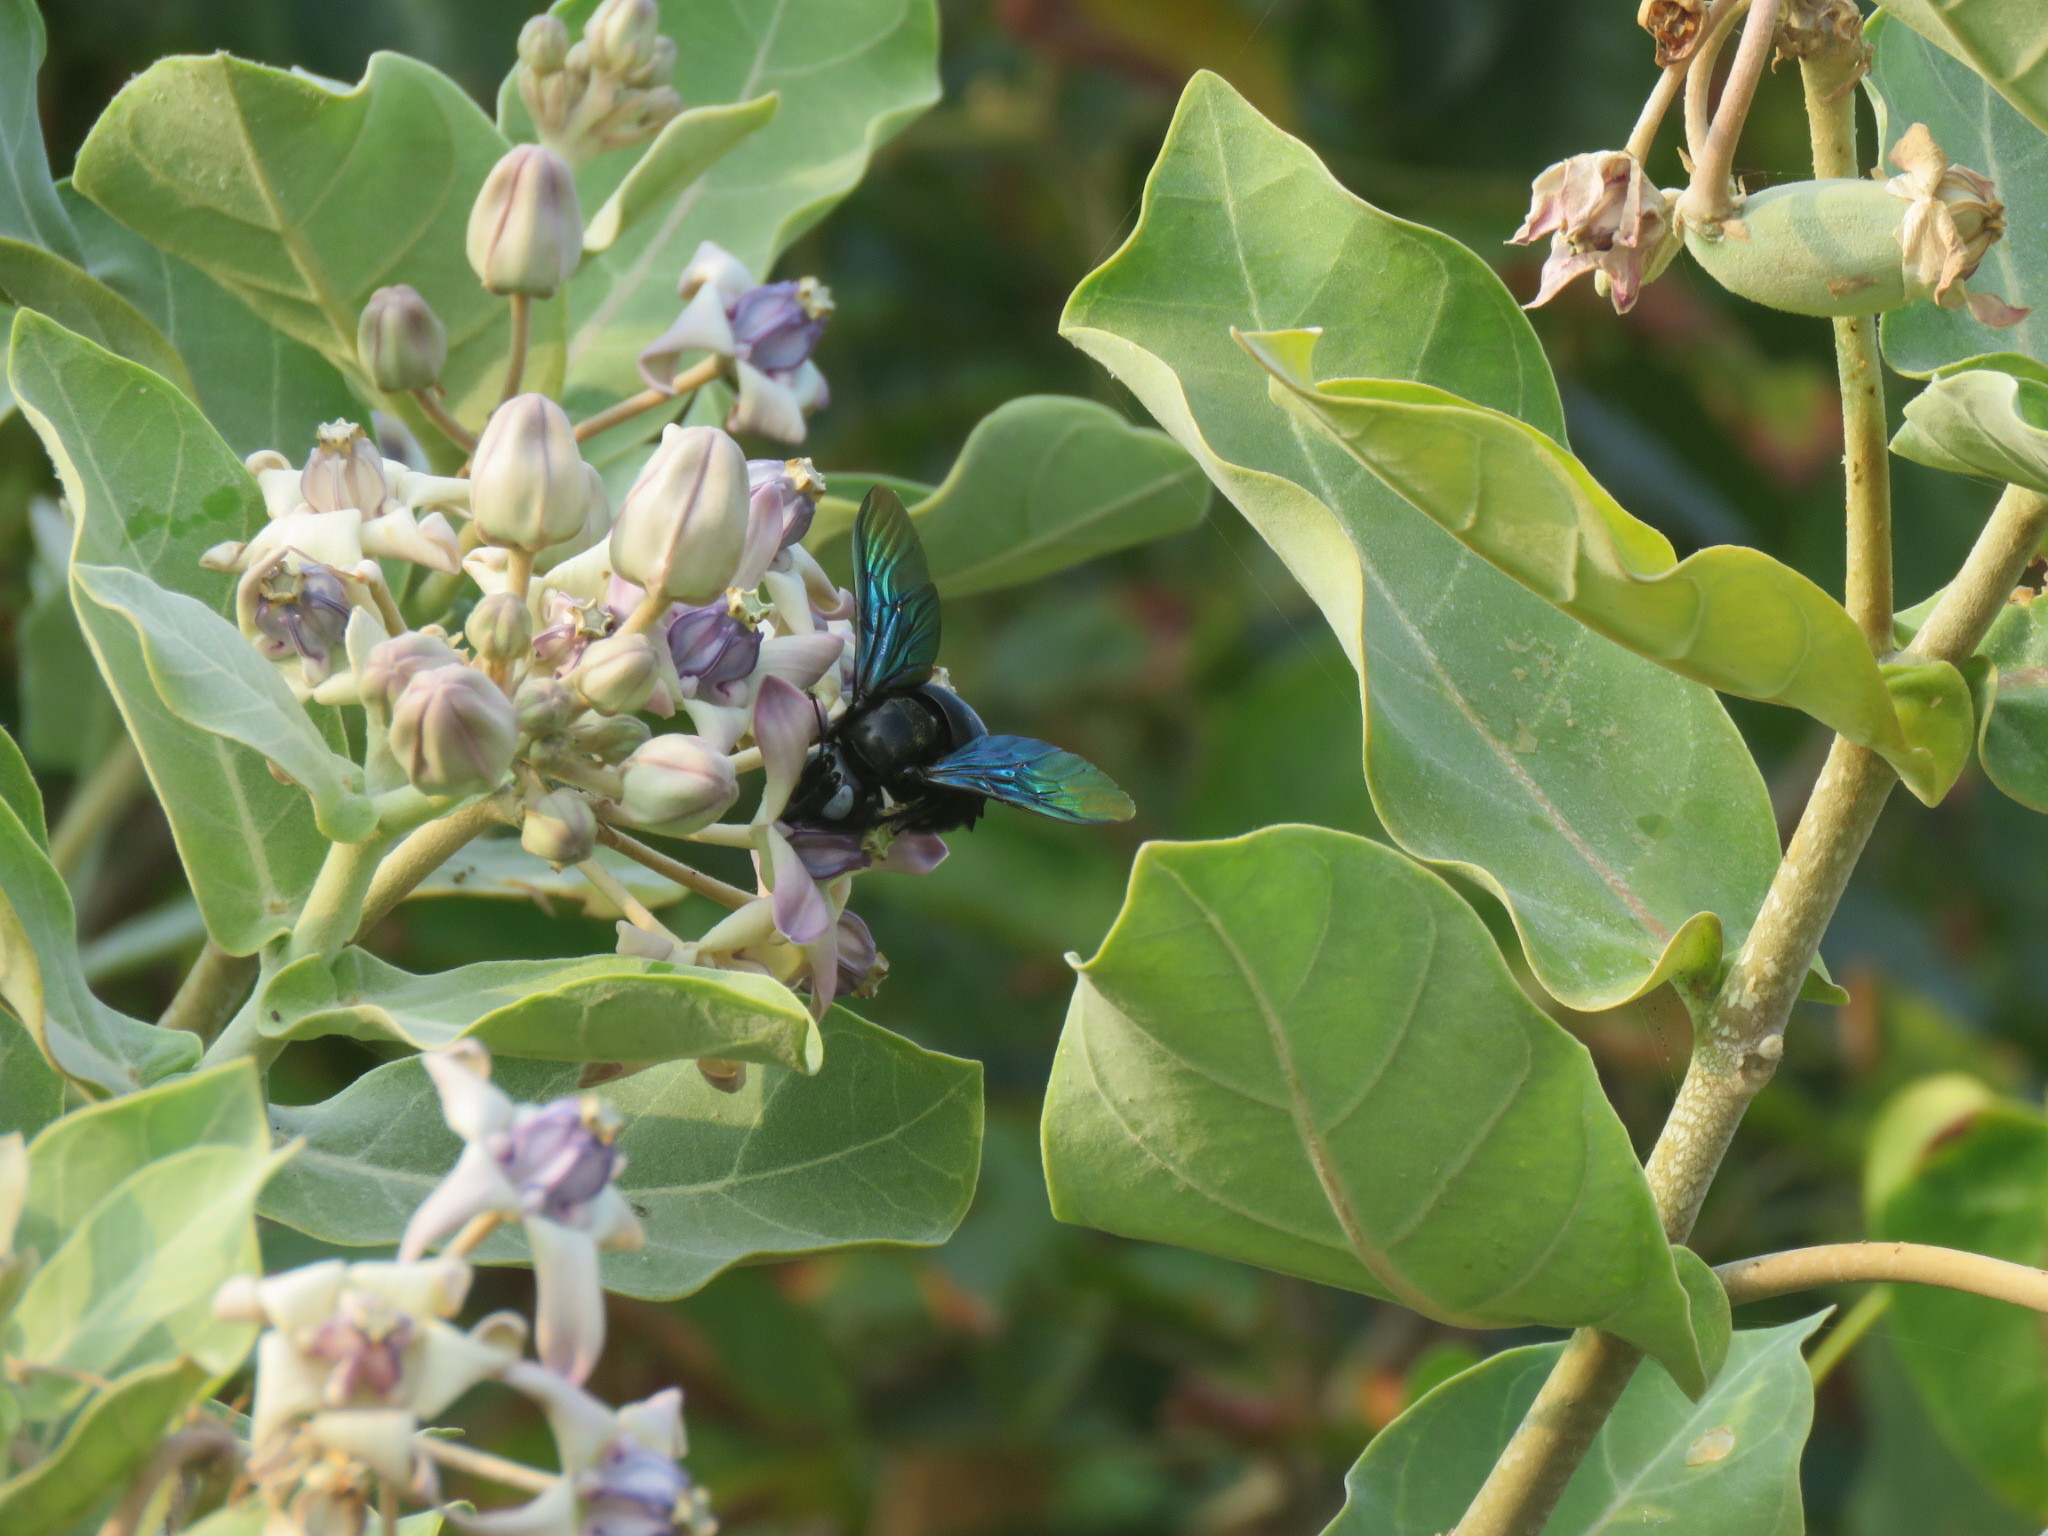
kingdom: Animalia
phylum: Arthropoda
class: Insecta
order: Hymenoptera
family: Apidae
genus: Xylocopa
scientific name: Xylocopa tenuiscapa
